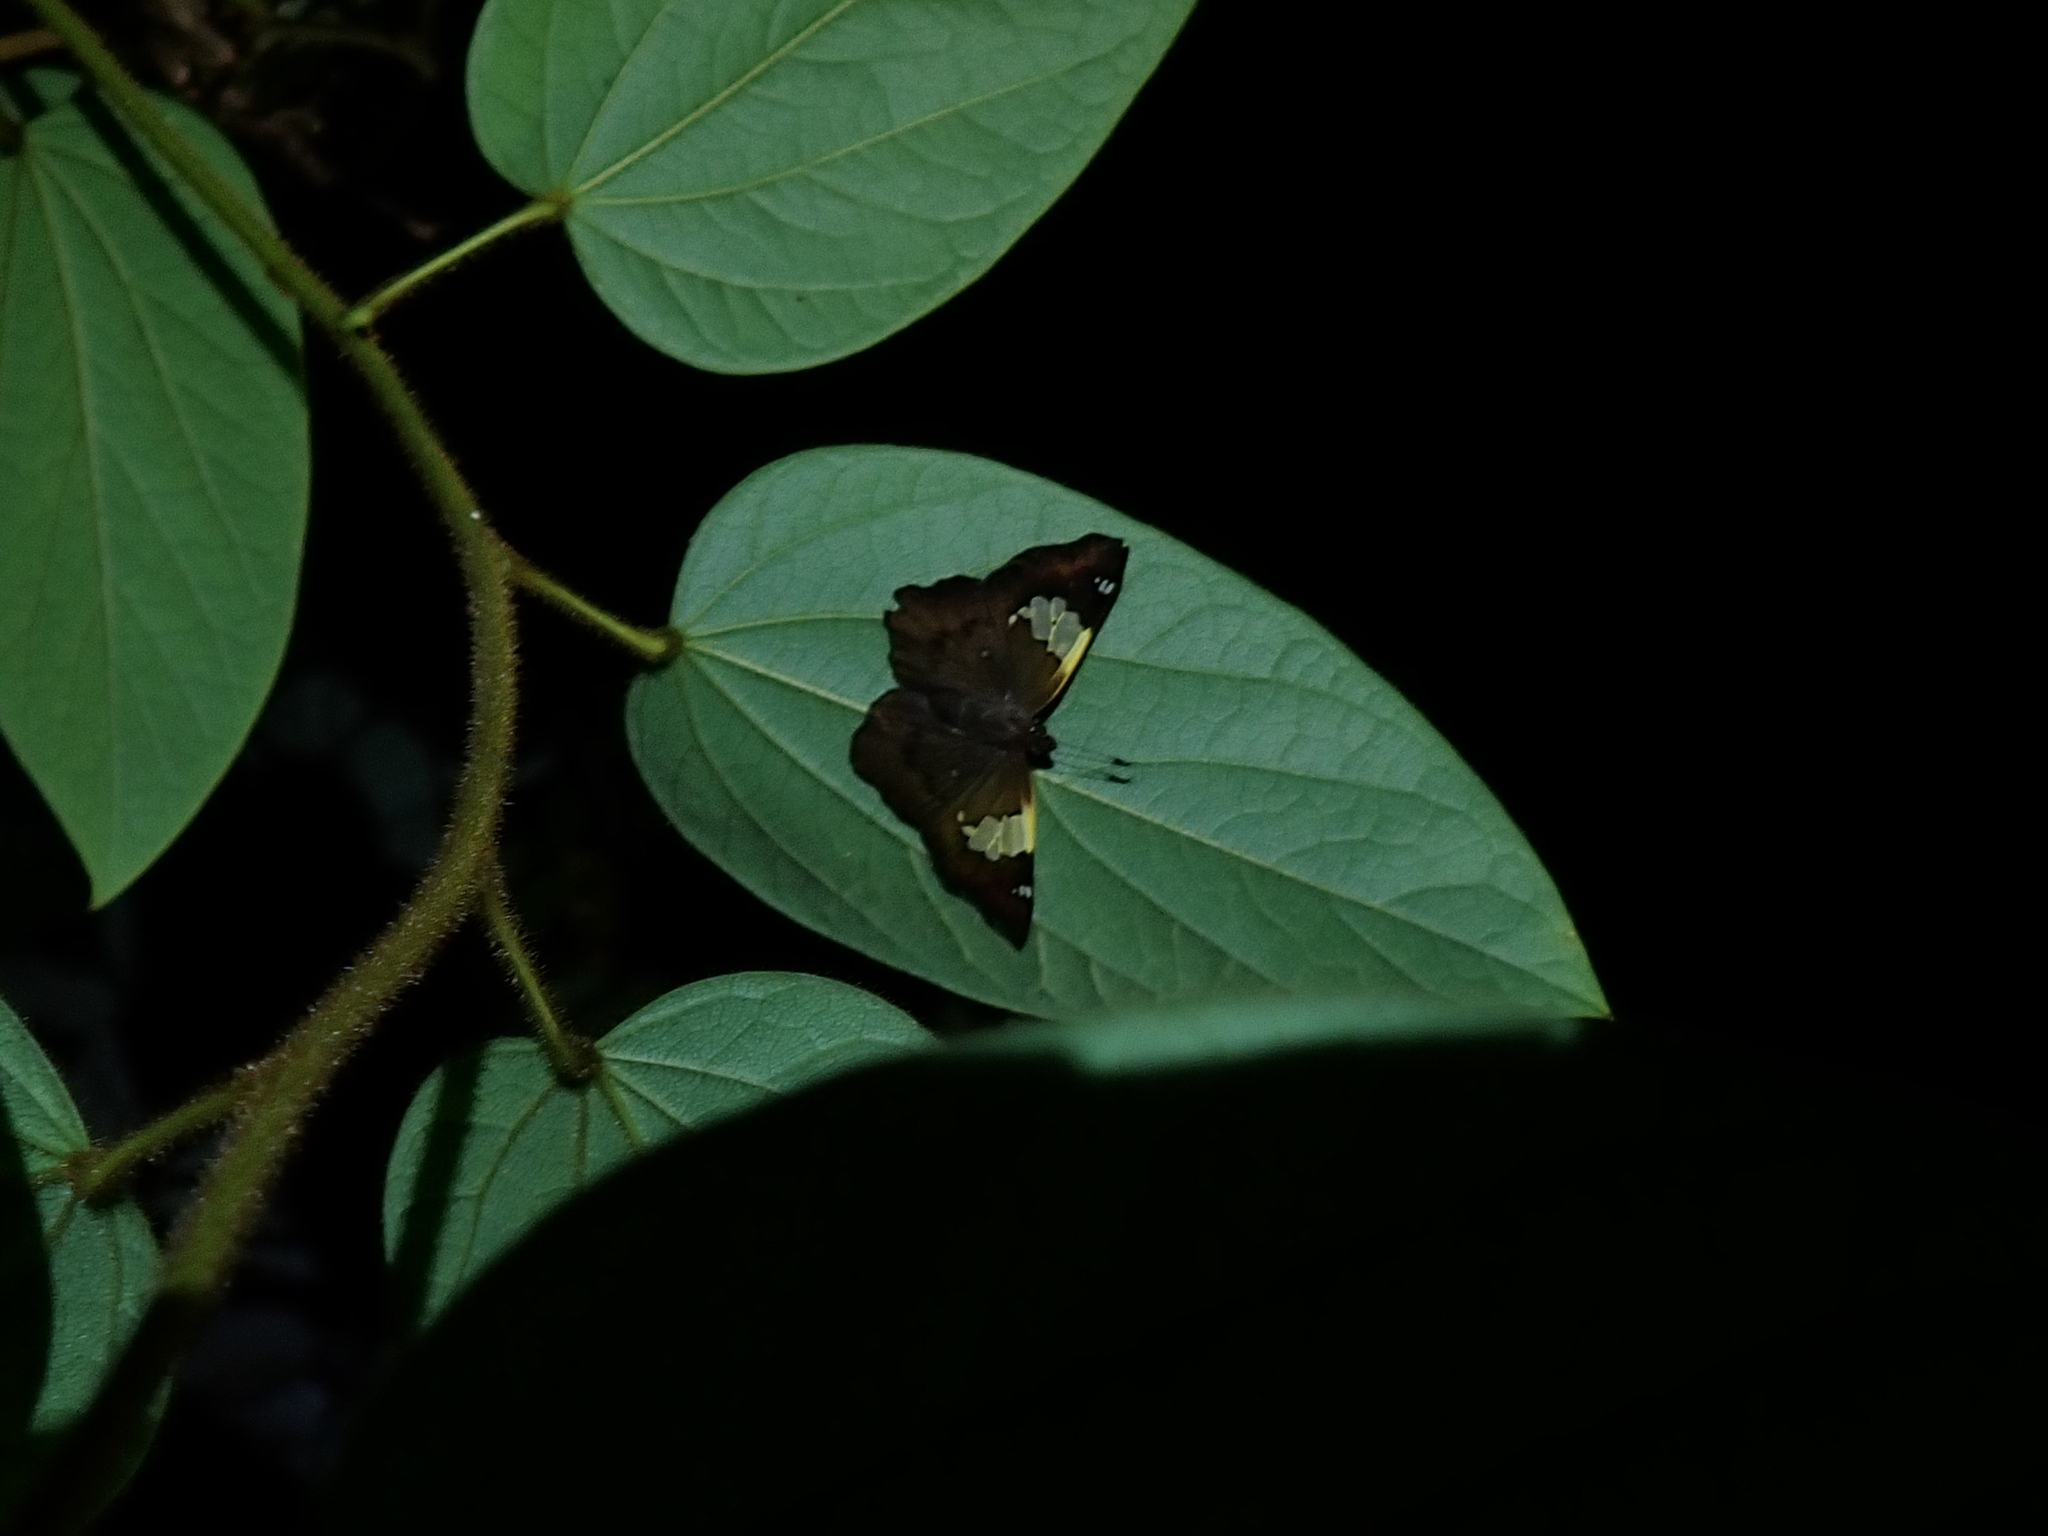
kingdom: Animalia
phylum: Arthropoda
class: Insecta
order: Lepidoptera
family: Hesperiidae
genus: Netrocoryne
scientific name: Netrocoryne repanda
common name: Bronze flat
